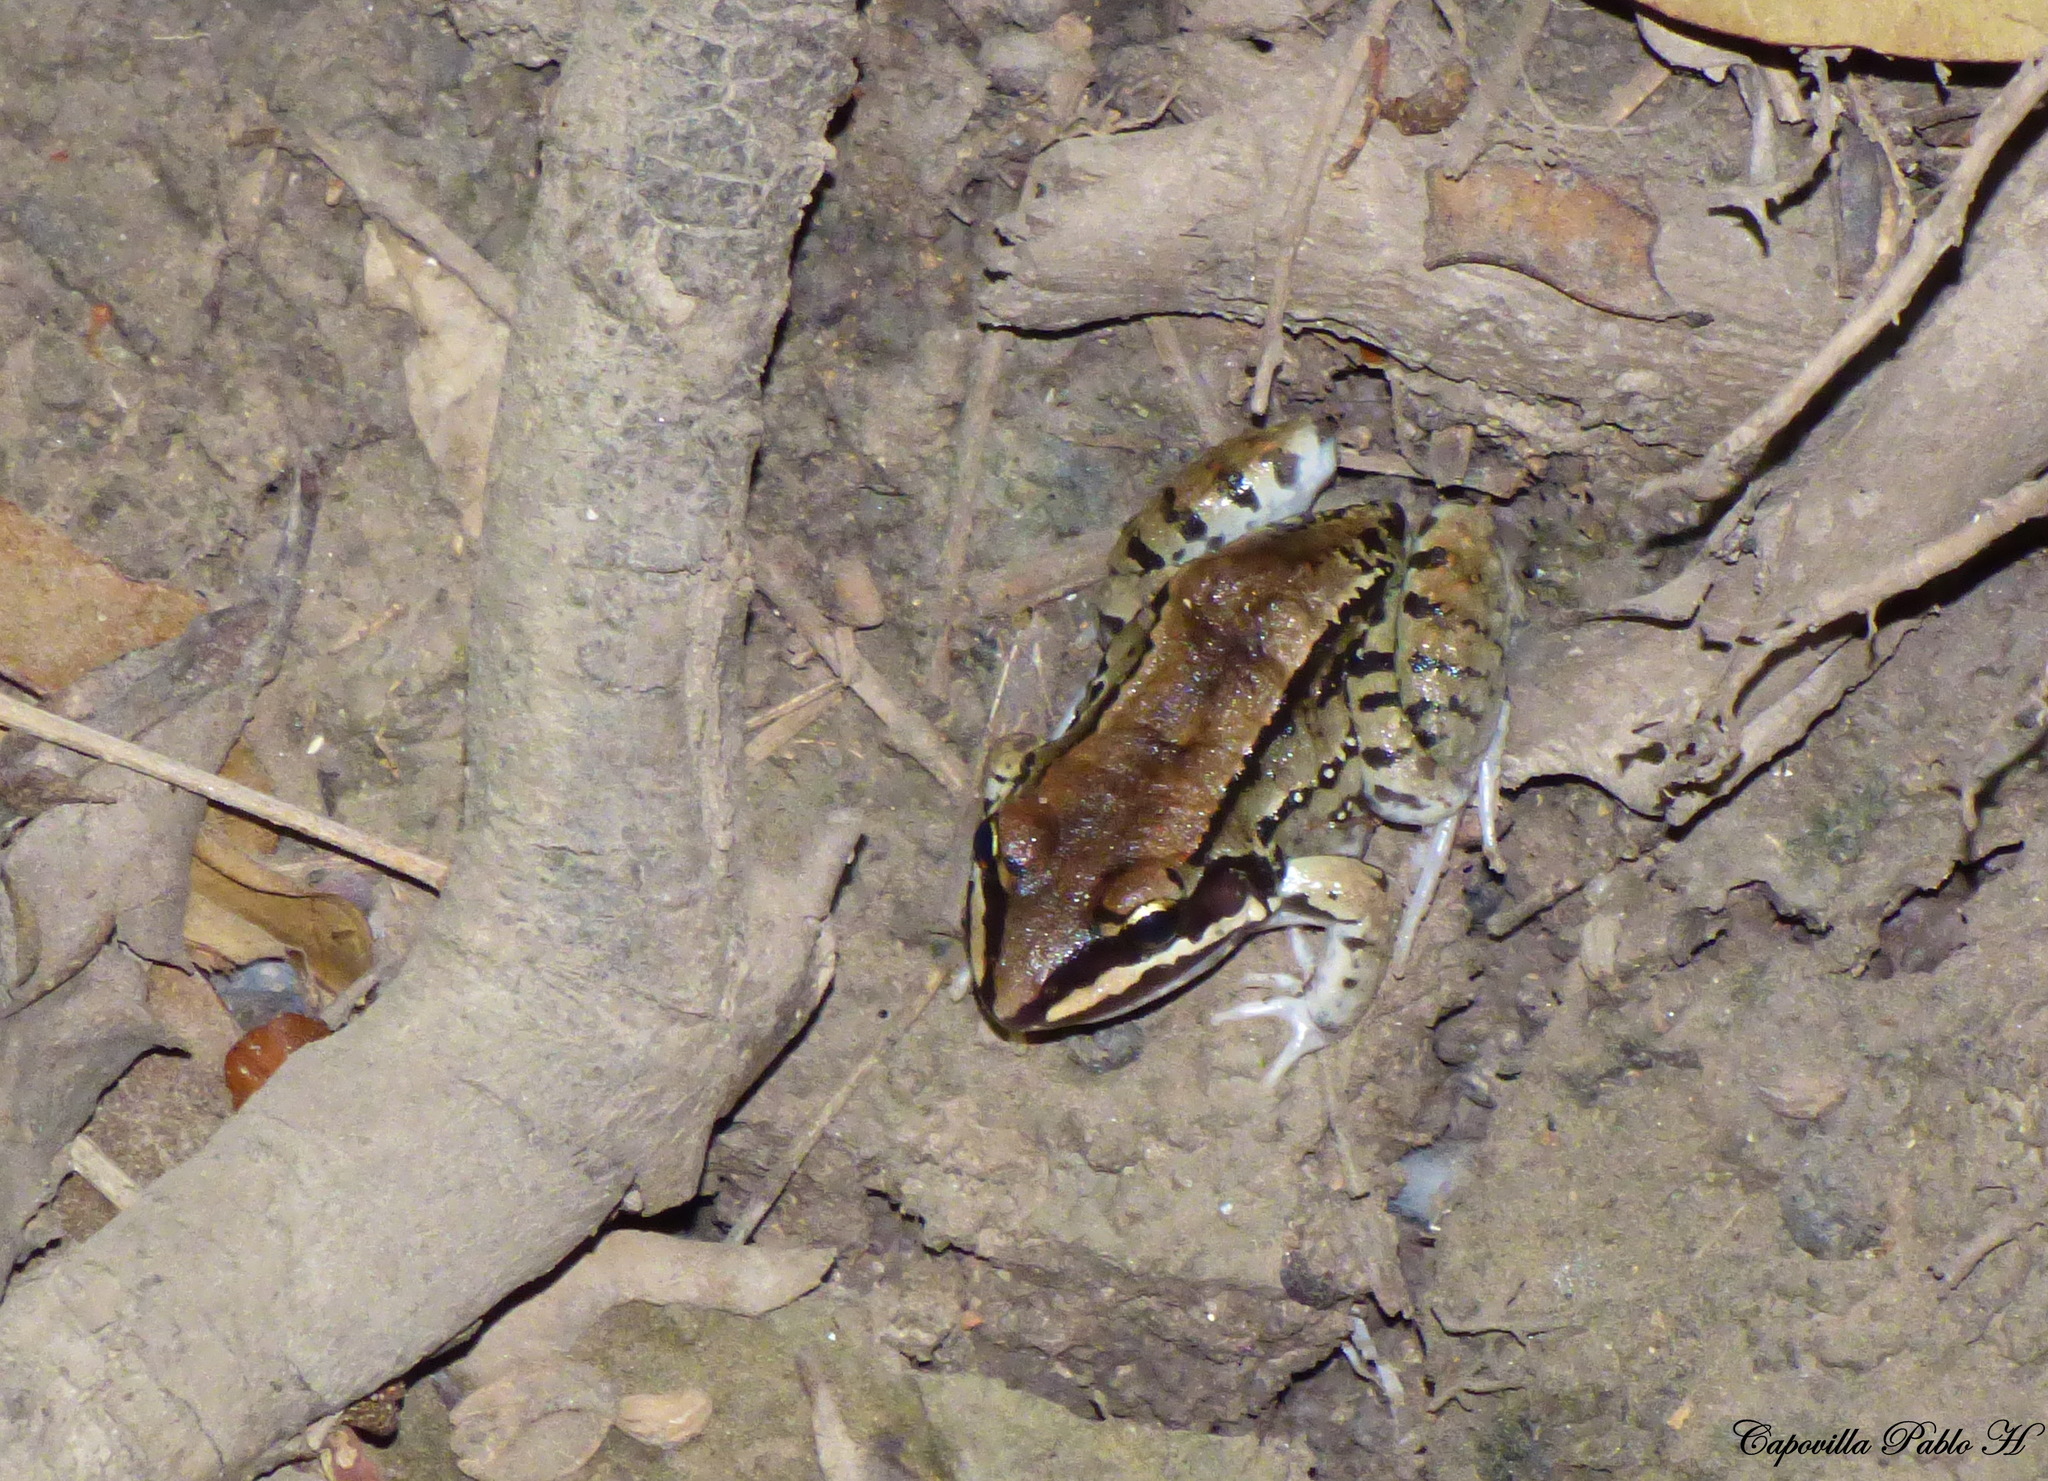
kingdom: Animalia
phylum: Chordata
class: Amphibia
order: Anura
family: Leptodactylidae
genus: Leptodactylus
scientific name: Leptodactylus mystacinus
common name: Moustached frog
